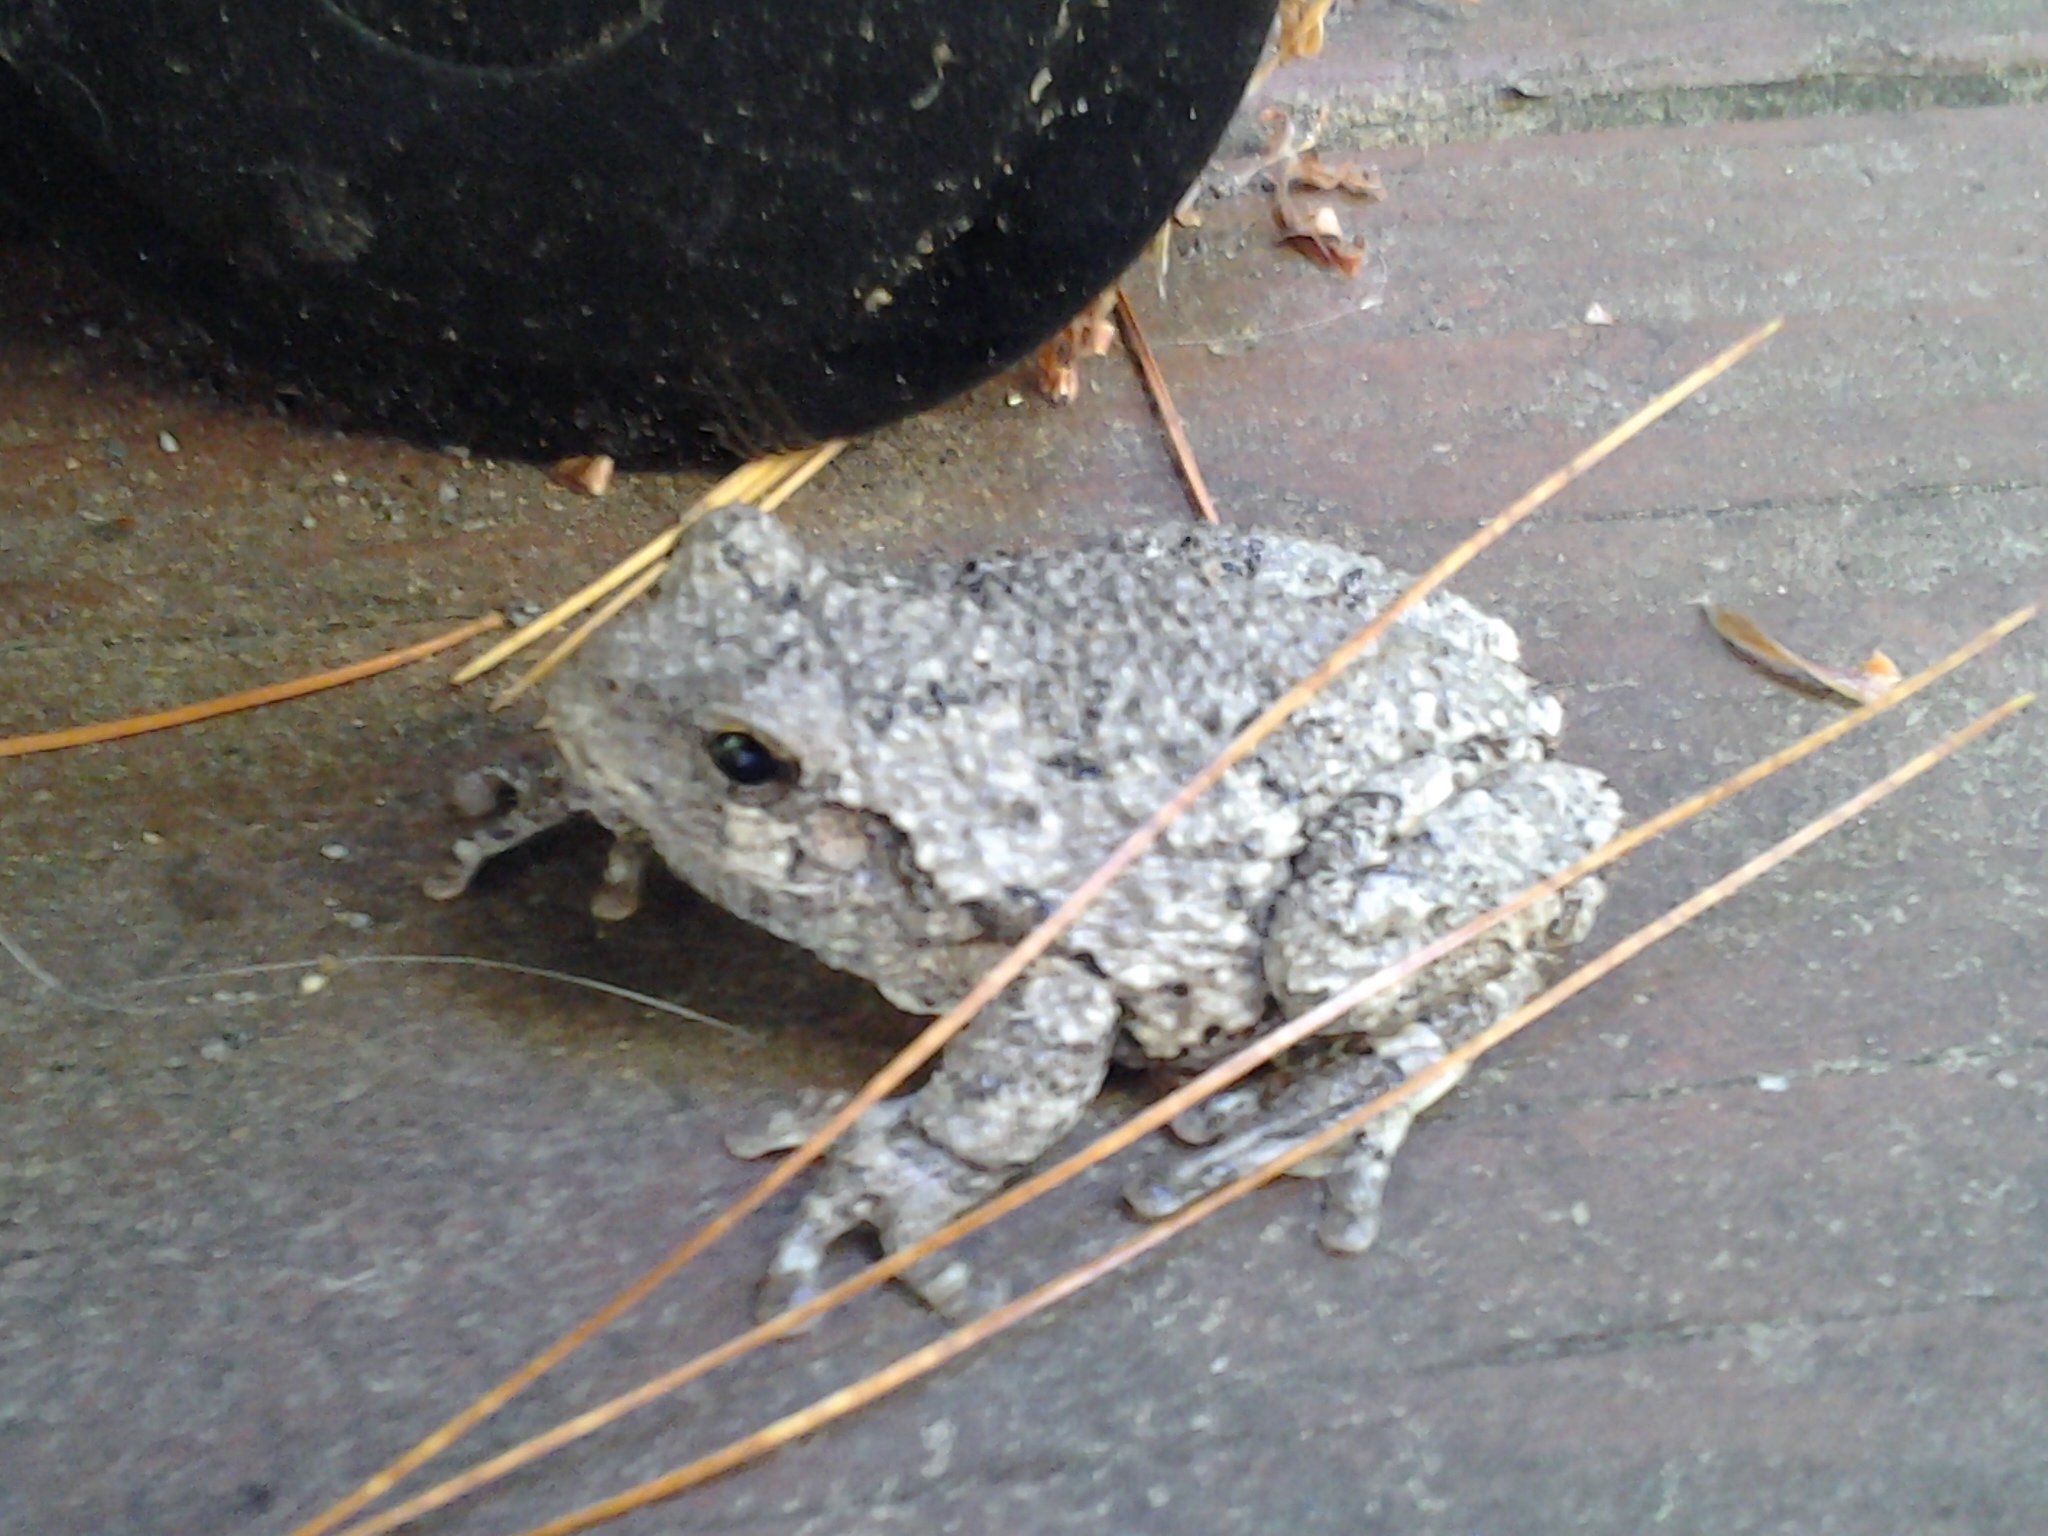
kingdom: Animalia
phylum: Chordata
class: Amphibia
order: Anura
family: Hylidae
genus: Dryophytes
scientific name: Dryophytes versicolor
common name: Gray treefrog
